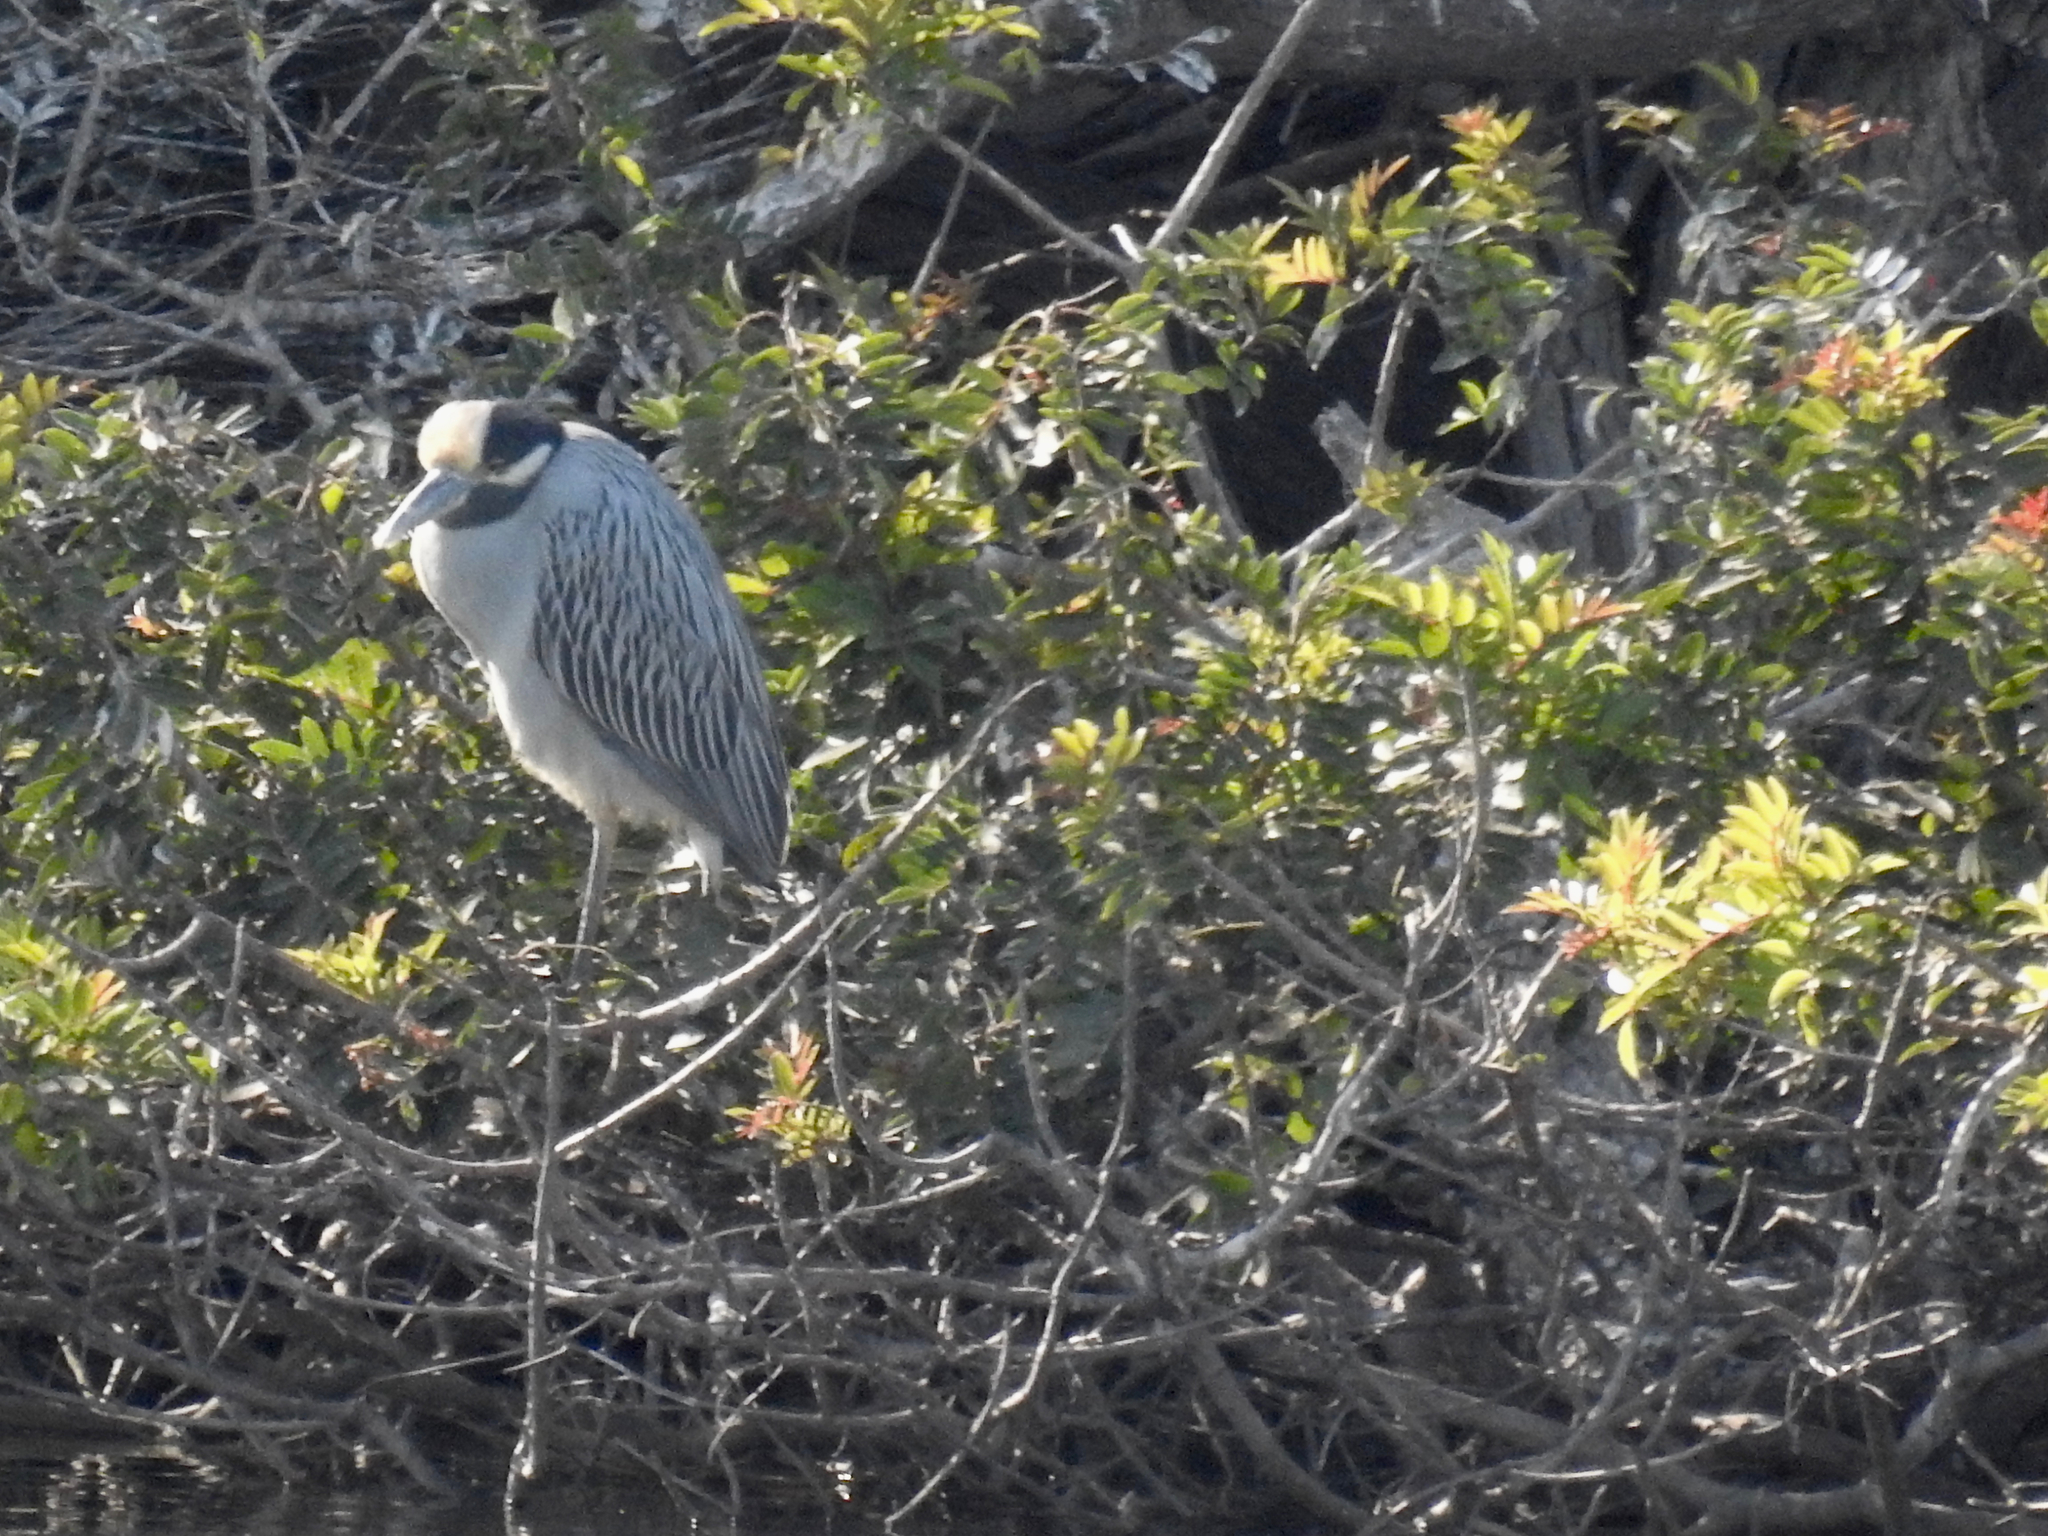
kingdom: Animalia
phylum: Chordata
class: Aves
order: Pelecaniformes
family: Ardeidae
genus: Nyctanassa
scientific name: Nyctanassa violacea
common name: Yellow-crowned night heron
